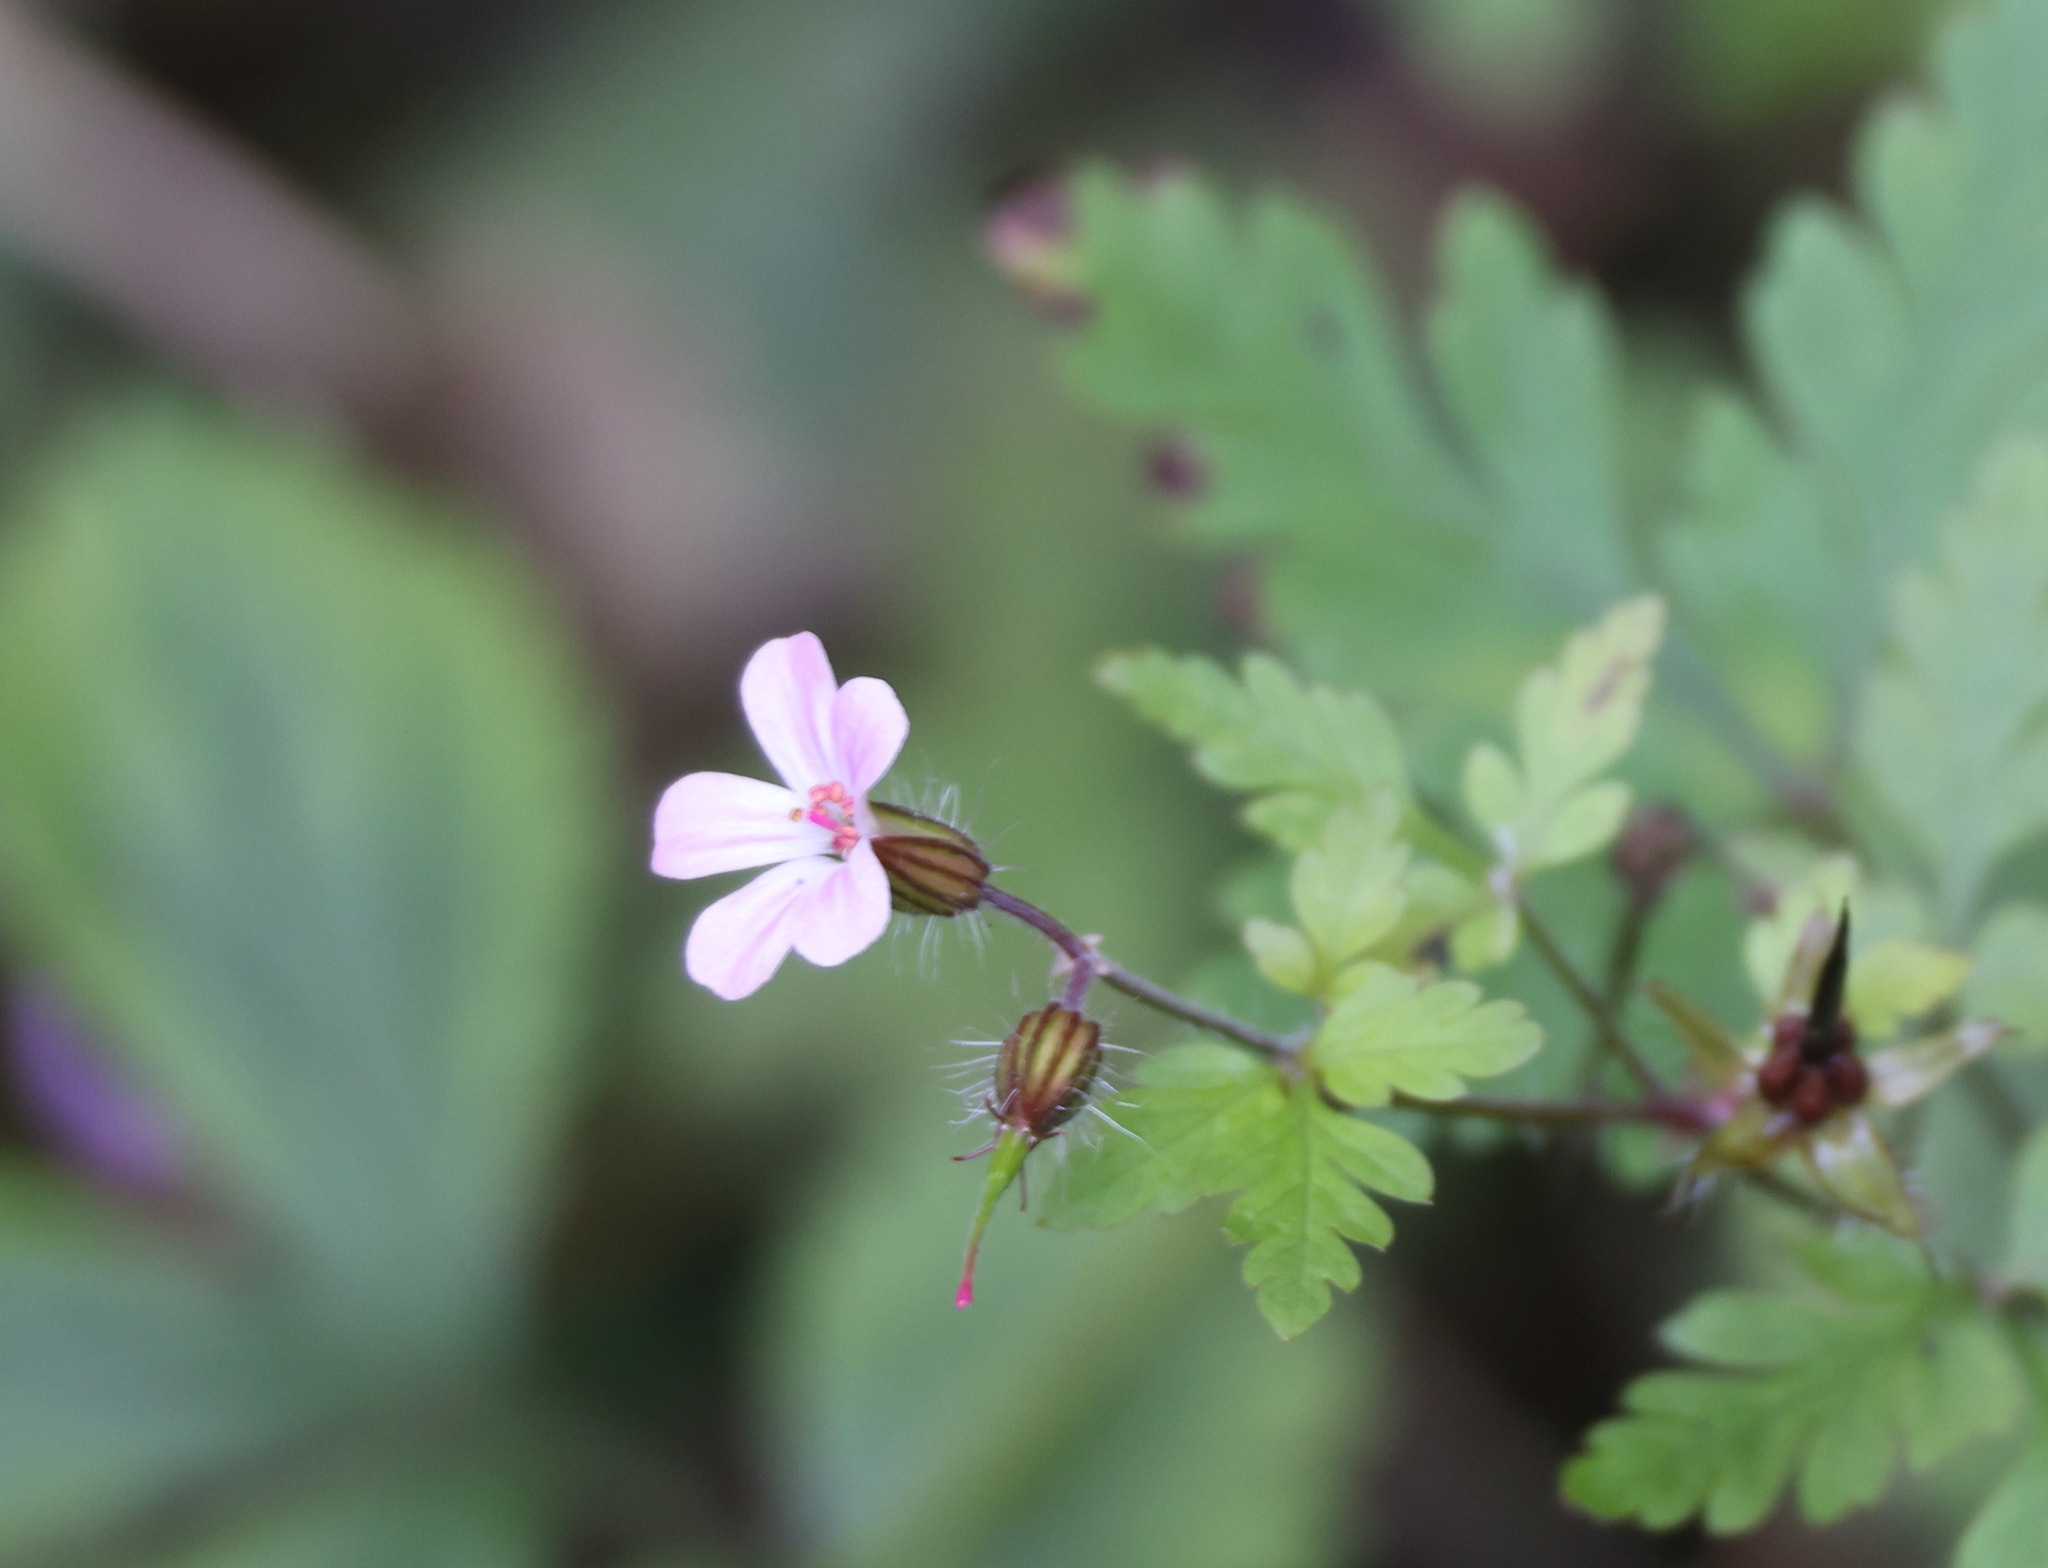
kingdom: Plantae
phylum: Tracheophyta
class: Magnoliopsida
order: Geraniales
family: Geraniaceae
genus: Geranium
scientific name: Geranium robertianum
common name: Herb-robert
